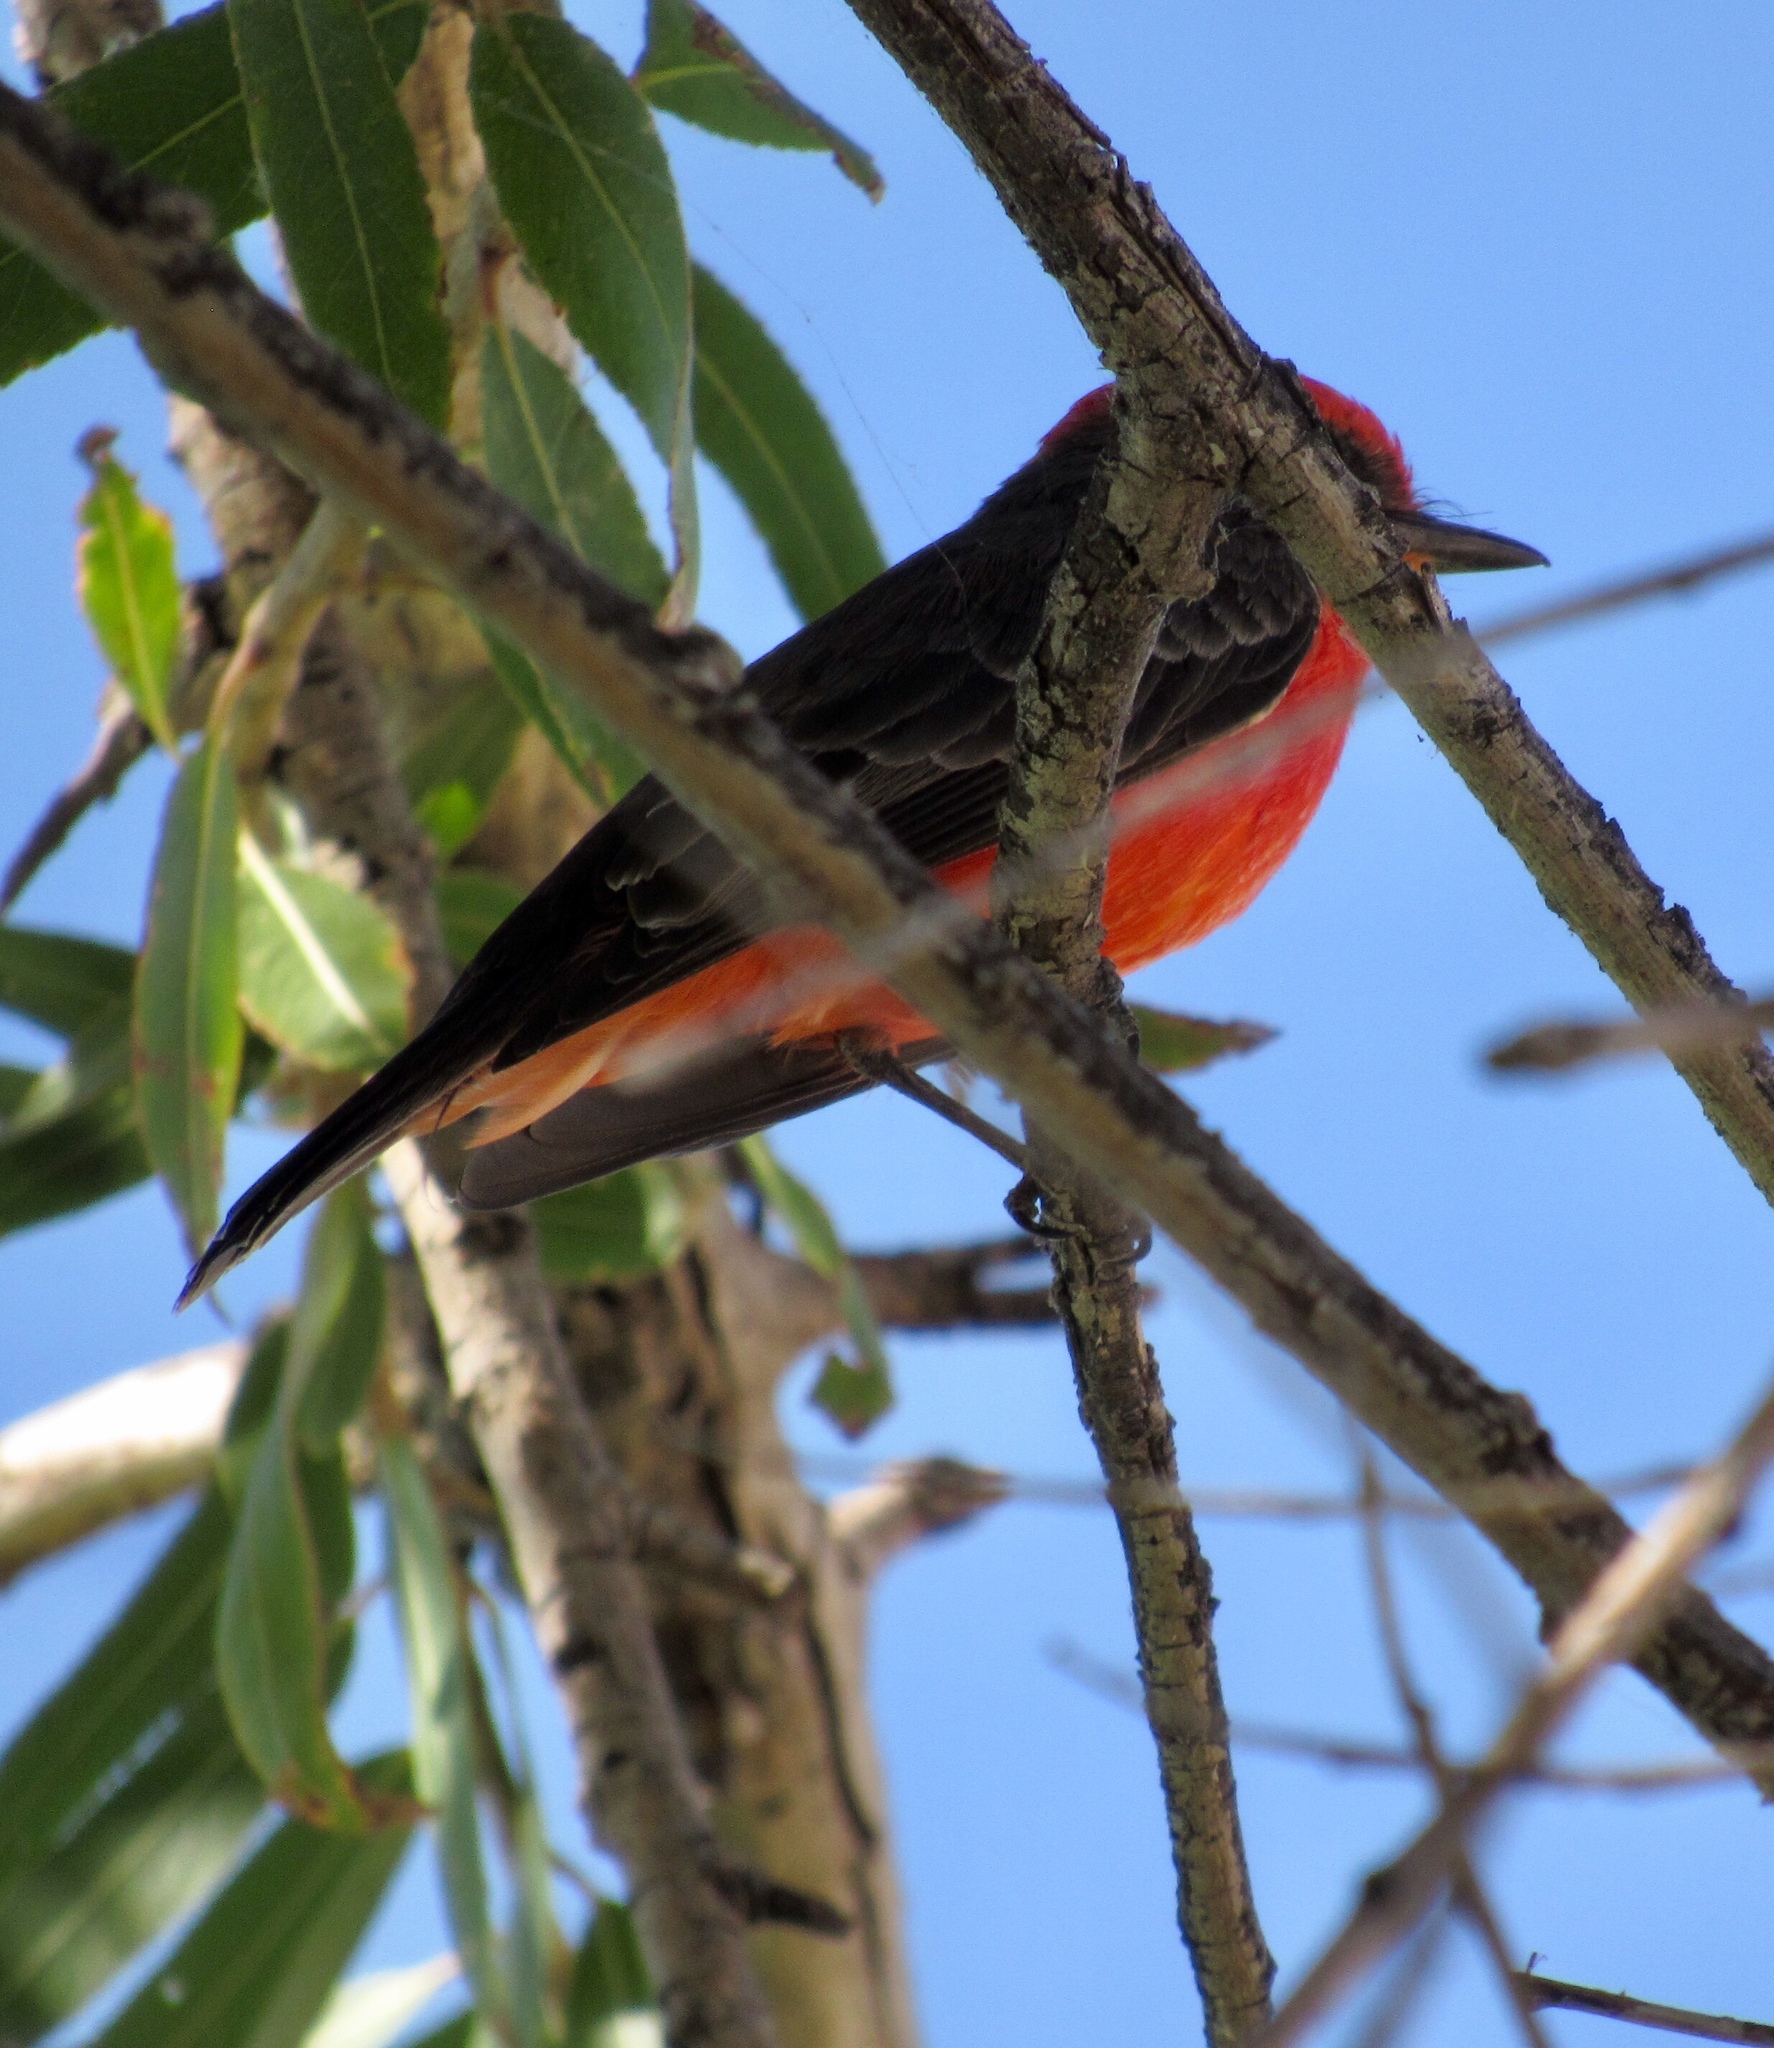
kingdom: Animalia
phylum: Chordata
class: Aves
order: Passeriformes
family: Tyrannidae
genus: Pyrocephalus
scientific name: Pyrocephalus rubinus
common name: Vermilion flycatcher
